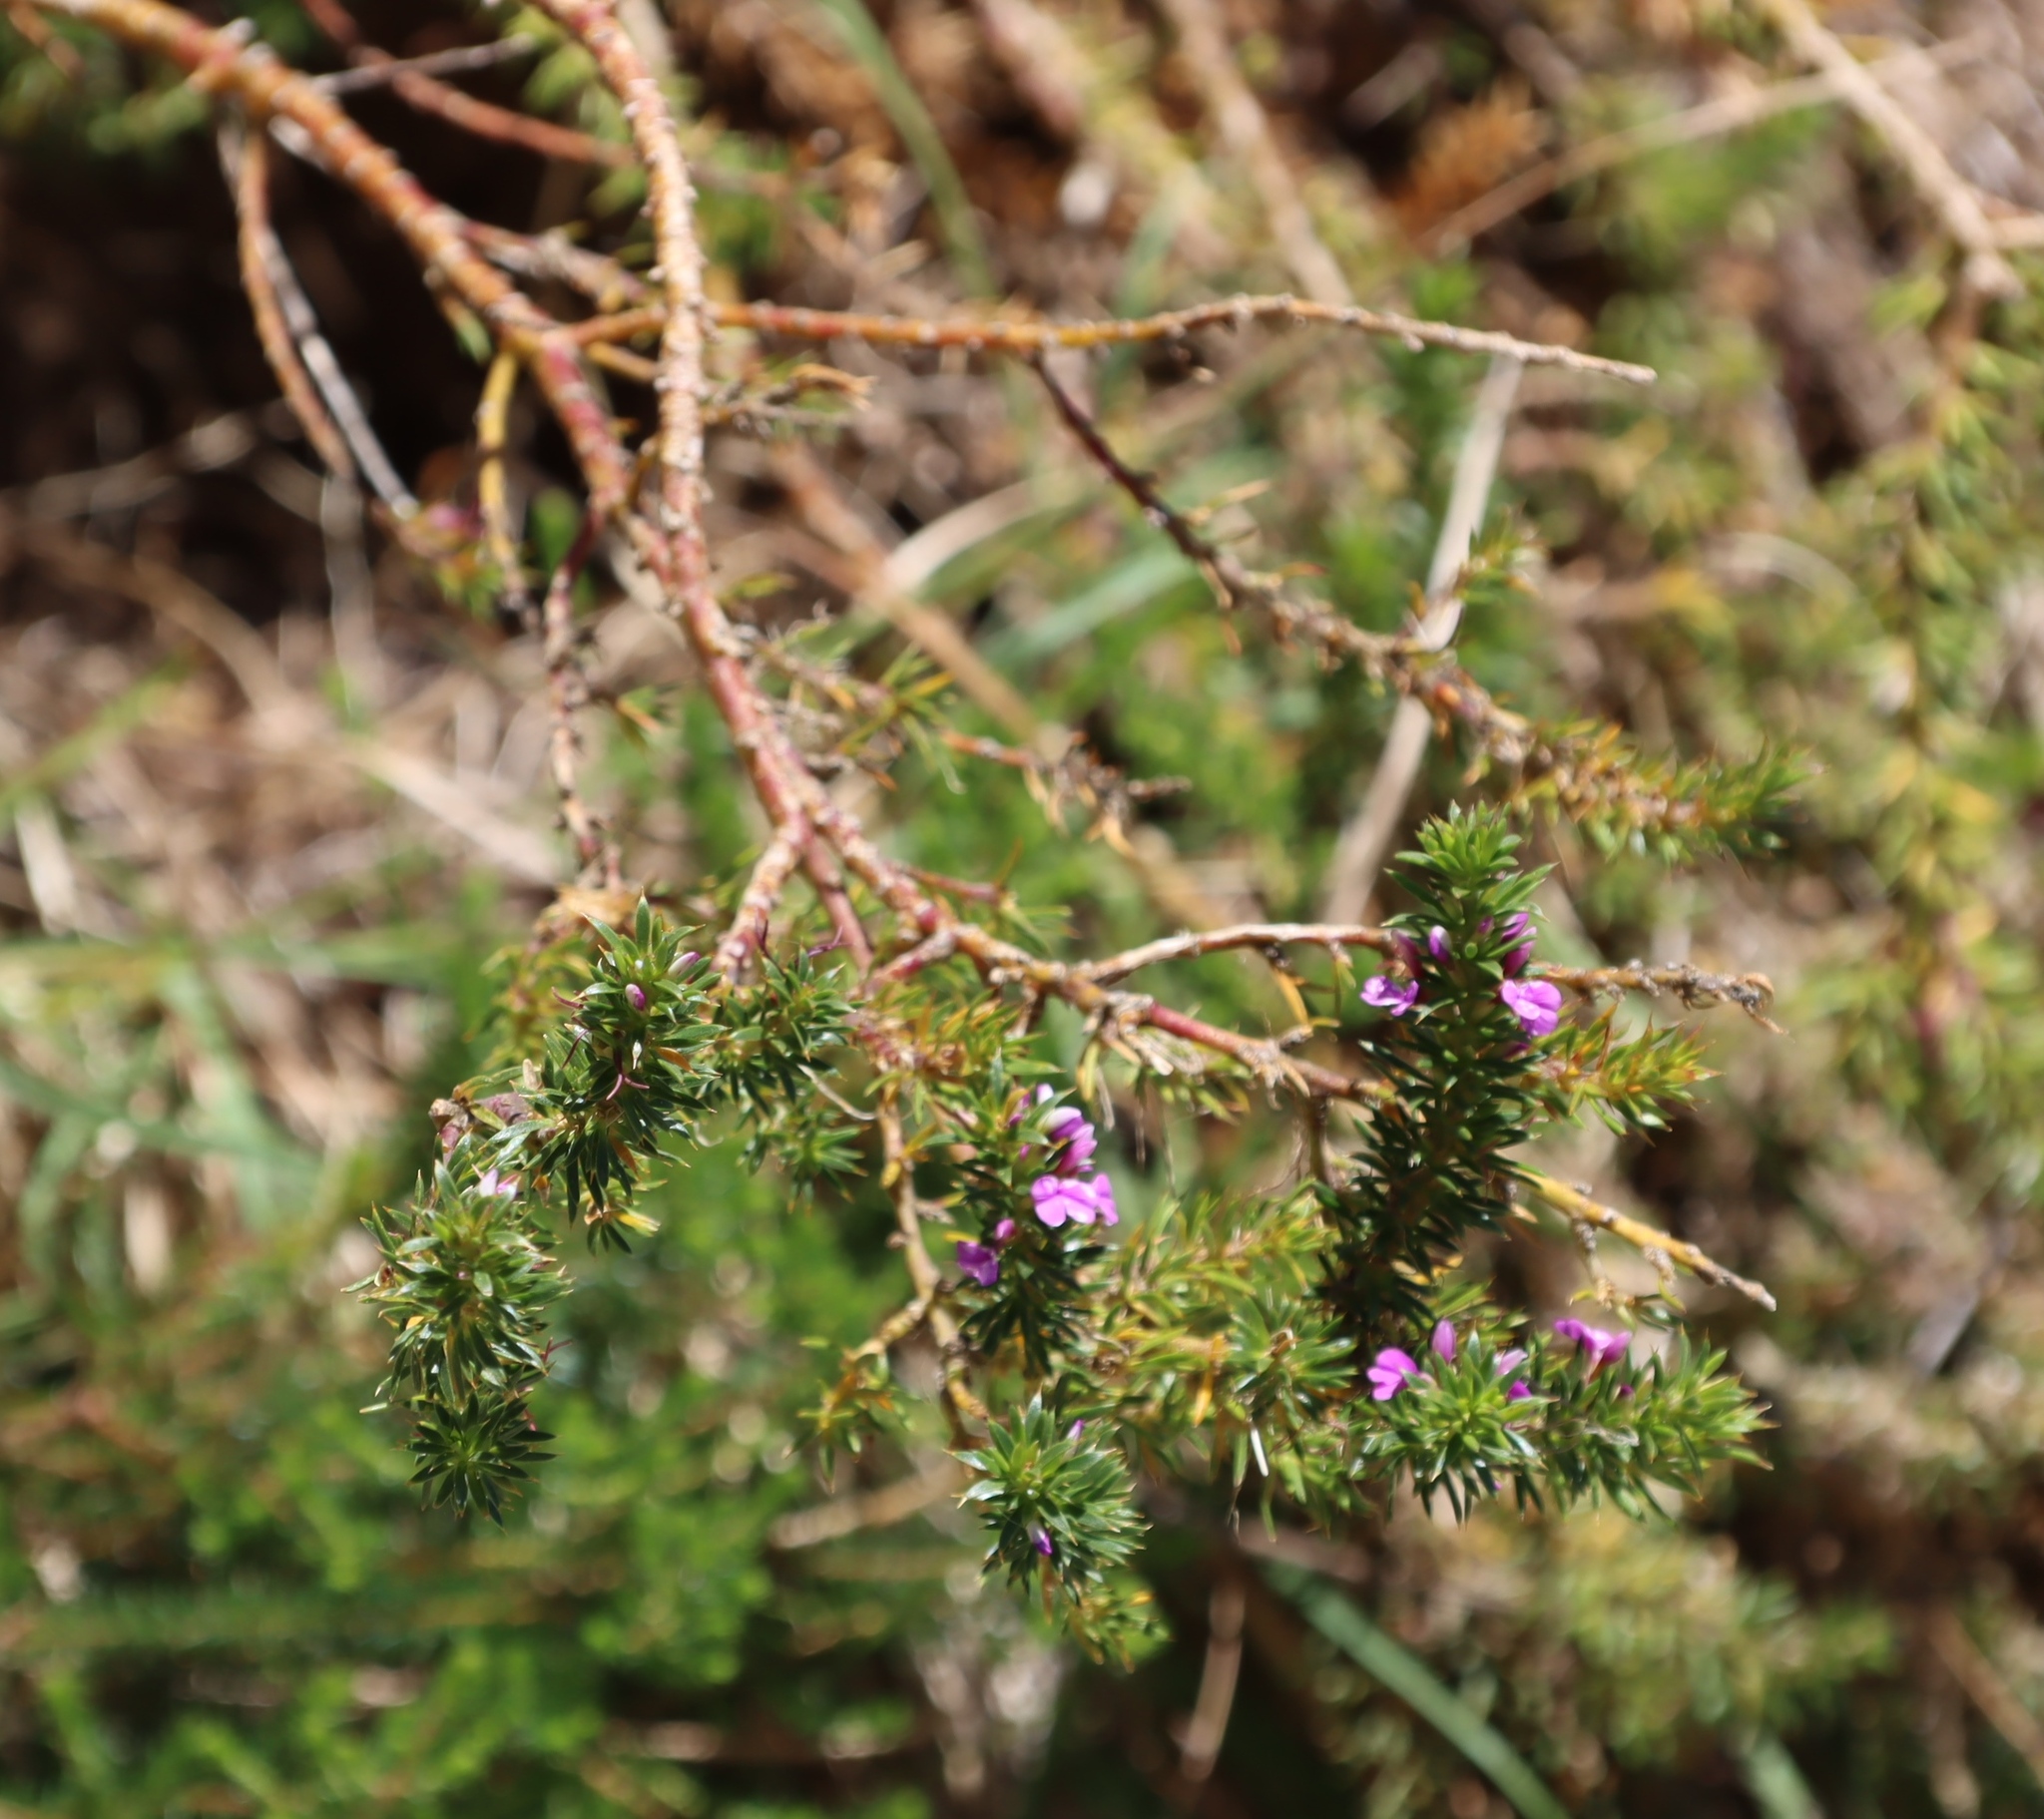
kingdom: Plantae
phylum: Tracheophyta
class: Magnoliopsida
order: Fabales
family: Polygalaceae
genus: Muraltia
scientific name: Muraltia heisteria
